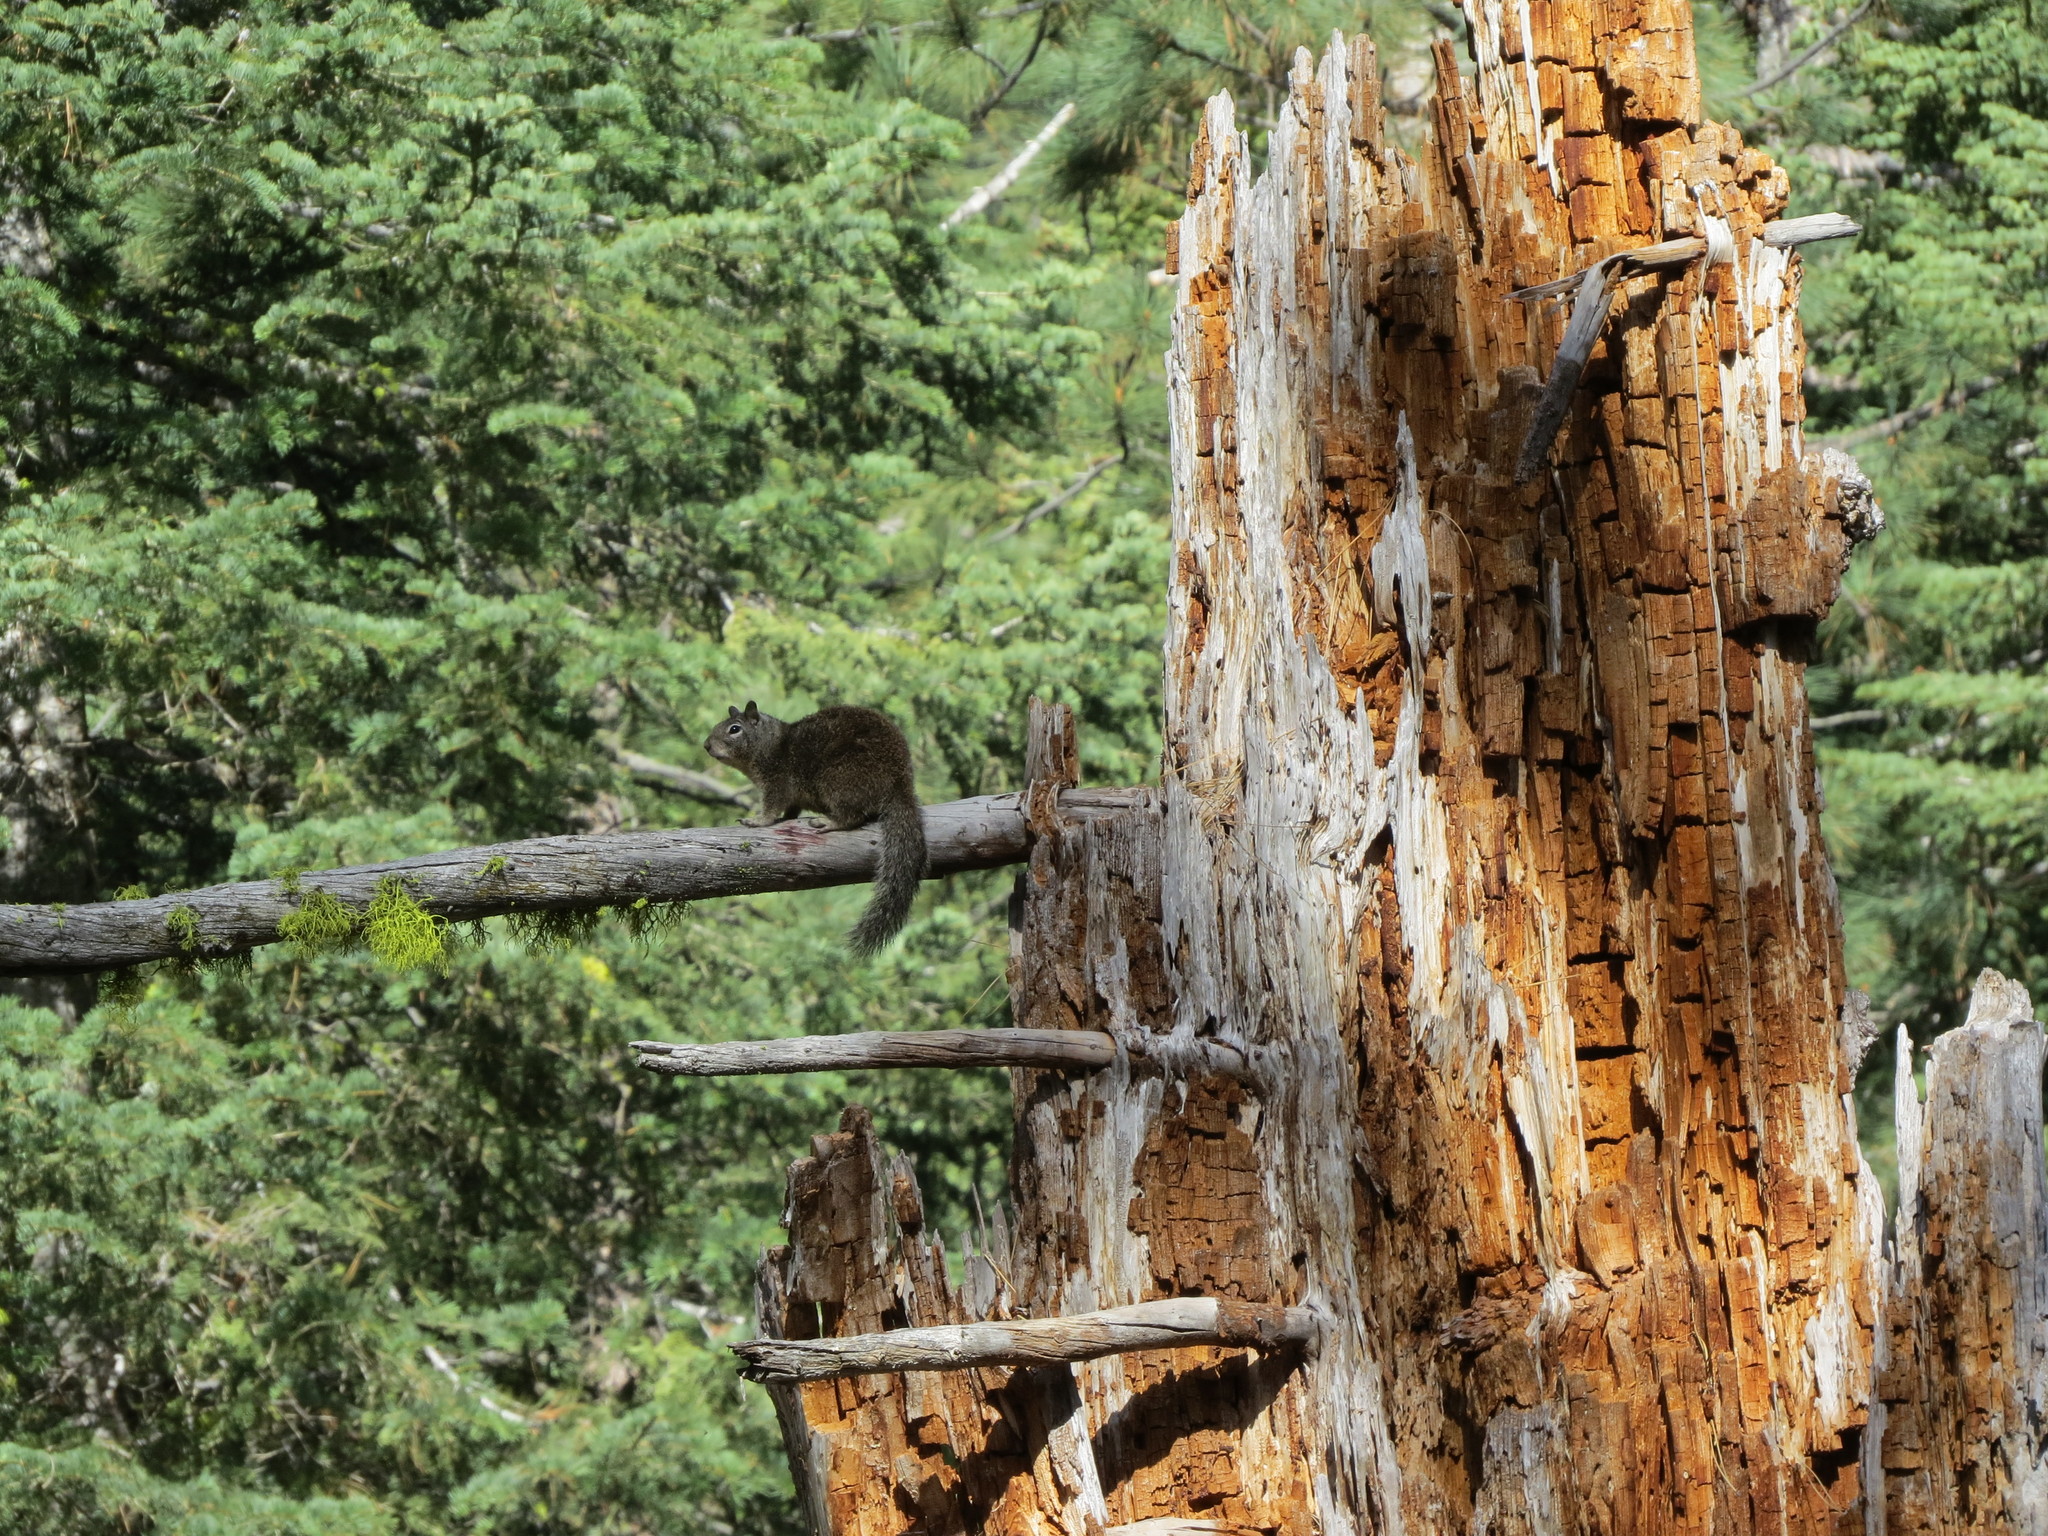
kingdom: Animalia
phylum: Chordata
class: Mammalia
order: Rodentia
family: Sciuridae
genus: Otospermophilus
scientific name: Otospermophilus beecheyi
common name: California ground squirrel
